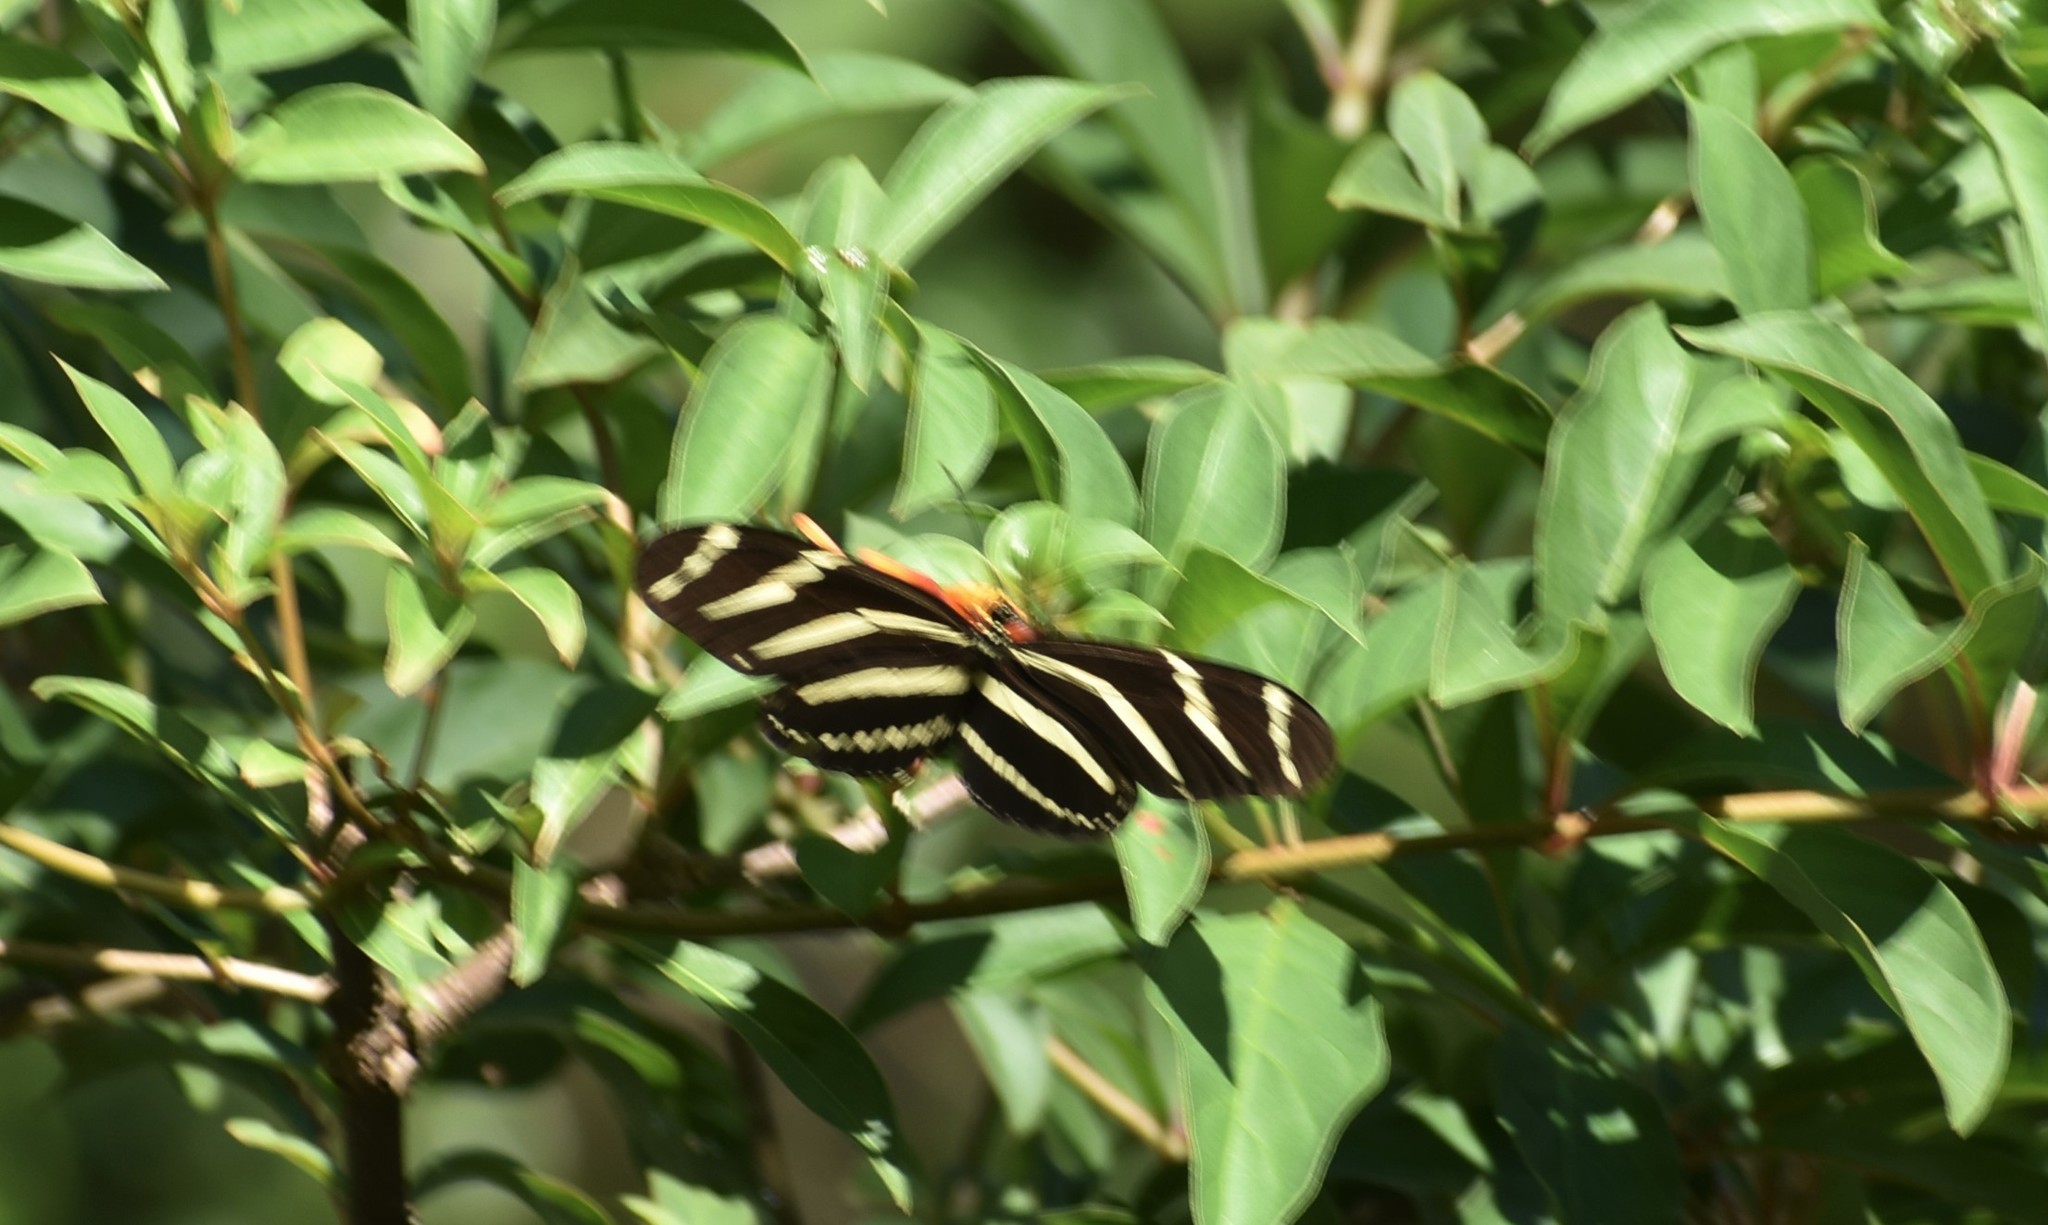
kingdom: Animalia
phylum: Arthropoda
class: Insecta
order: Lepidoptera
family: Nymphalidae
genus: Heliconius
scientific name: Heliconius charithonia
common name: Zebra long wing
